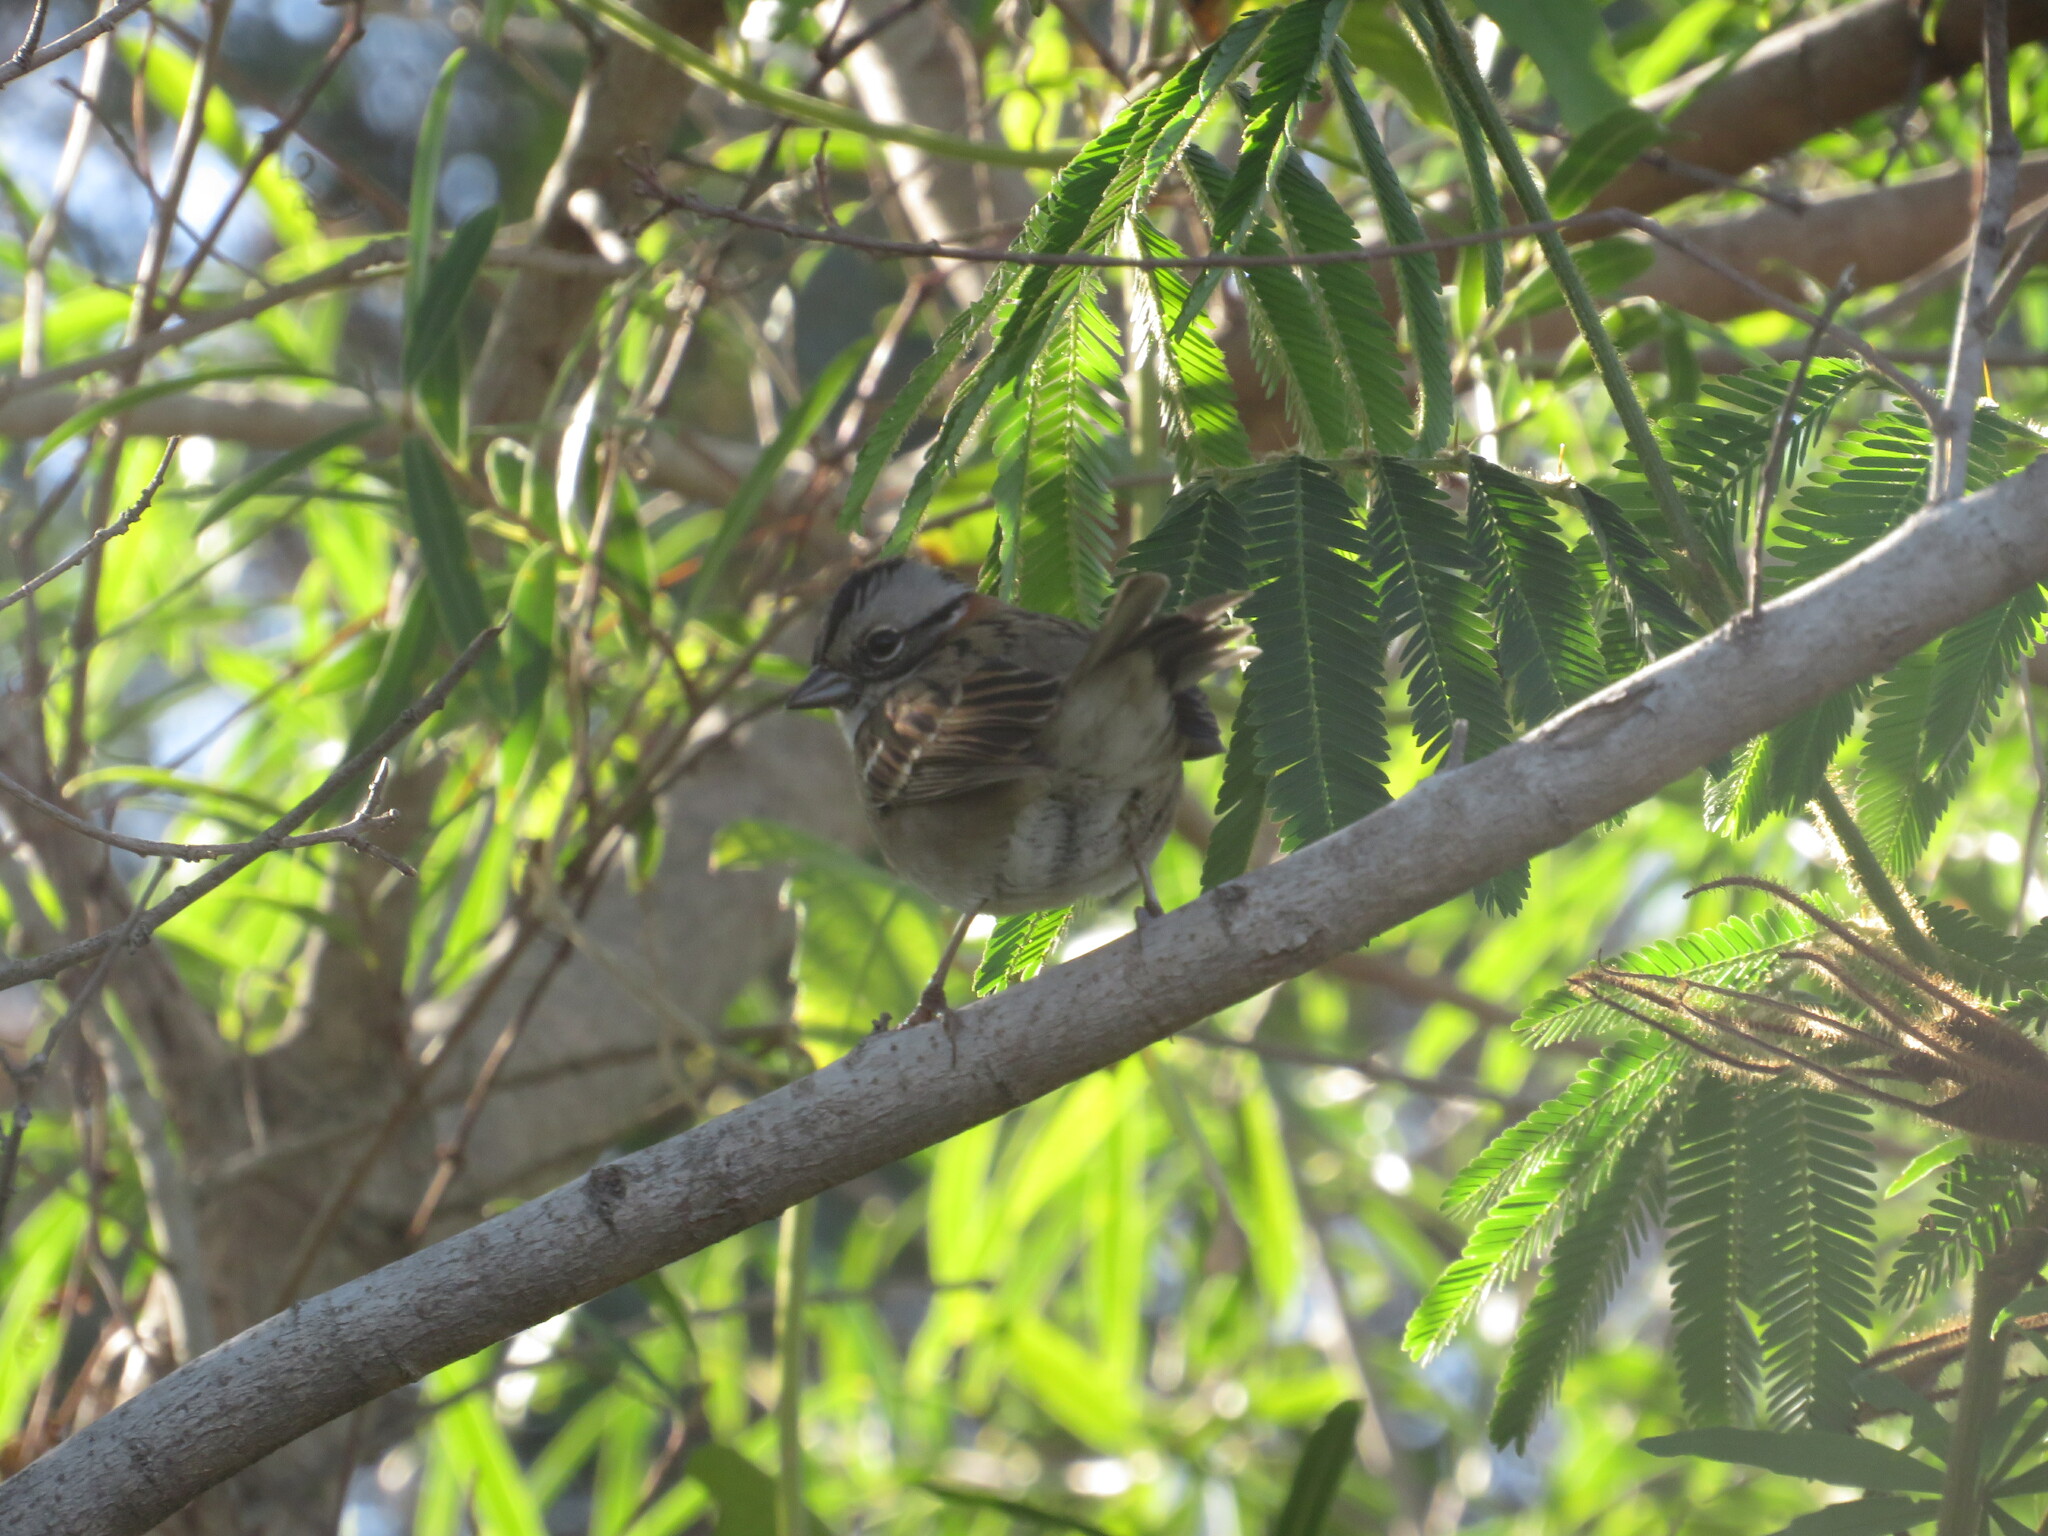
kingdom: Animalia
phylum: Chordata
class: Aves
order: Passeriformes
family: Passerellidae
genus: Zonotrichia
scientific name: Zonotrichia capensis
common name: Rufous-collared sparrow
